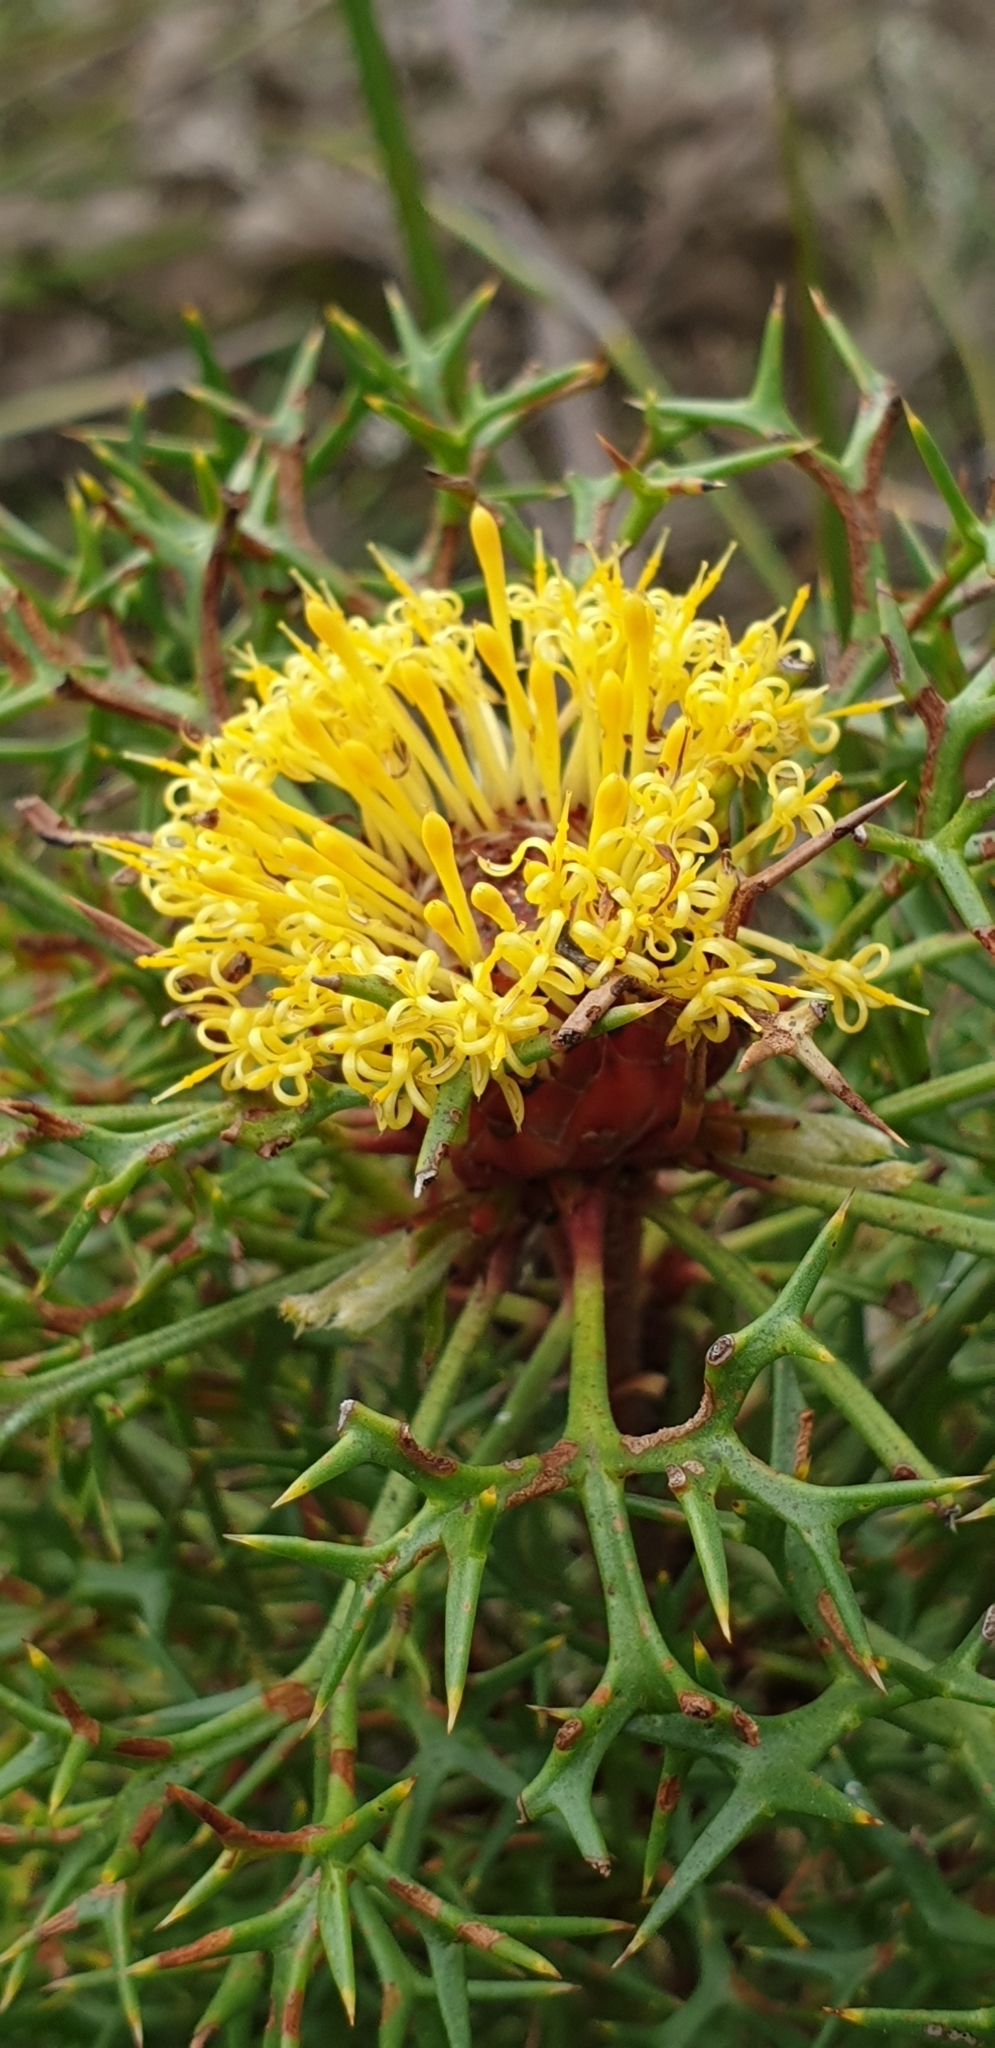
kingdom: Plantae
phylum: Tracheophyta
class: Magnoliopsida
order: Proteales
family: Proteaceae
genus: Isopogon
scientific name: Isopogon ceratophyllus
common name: Horny cone-bush
